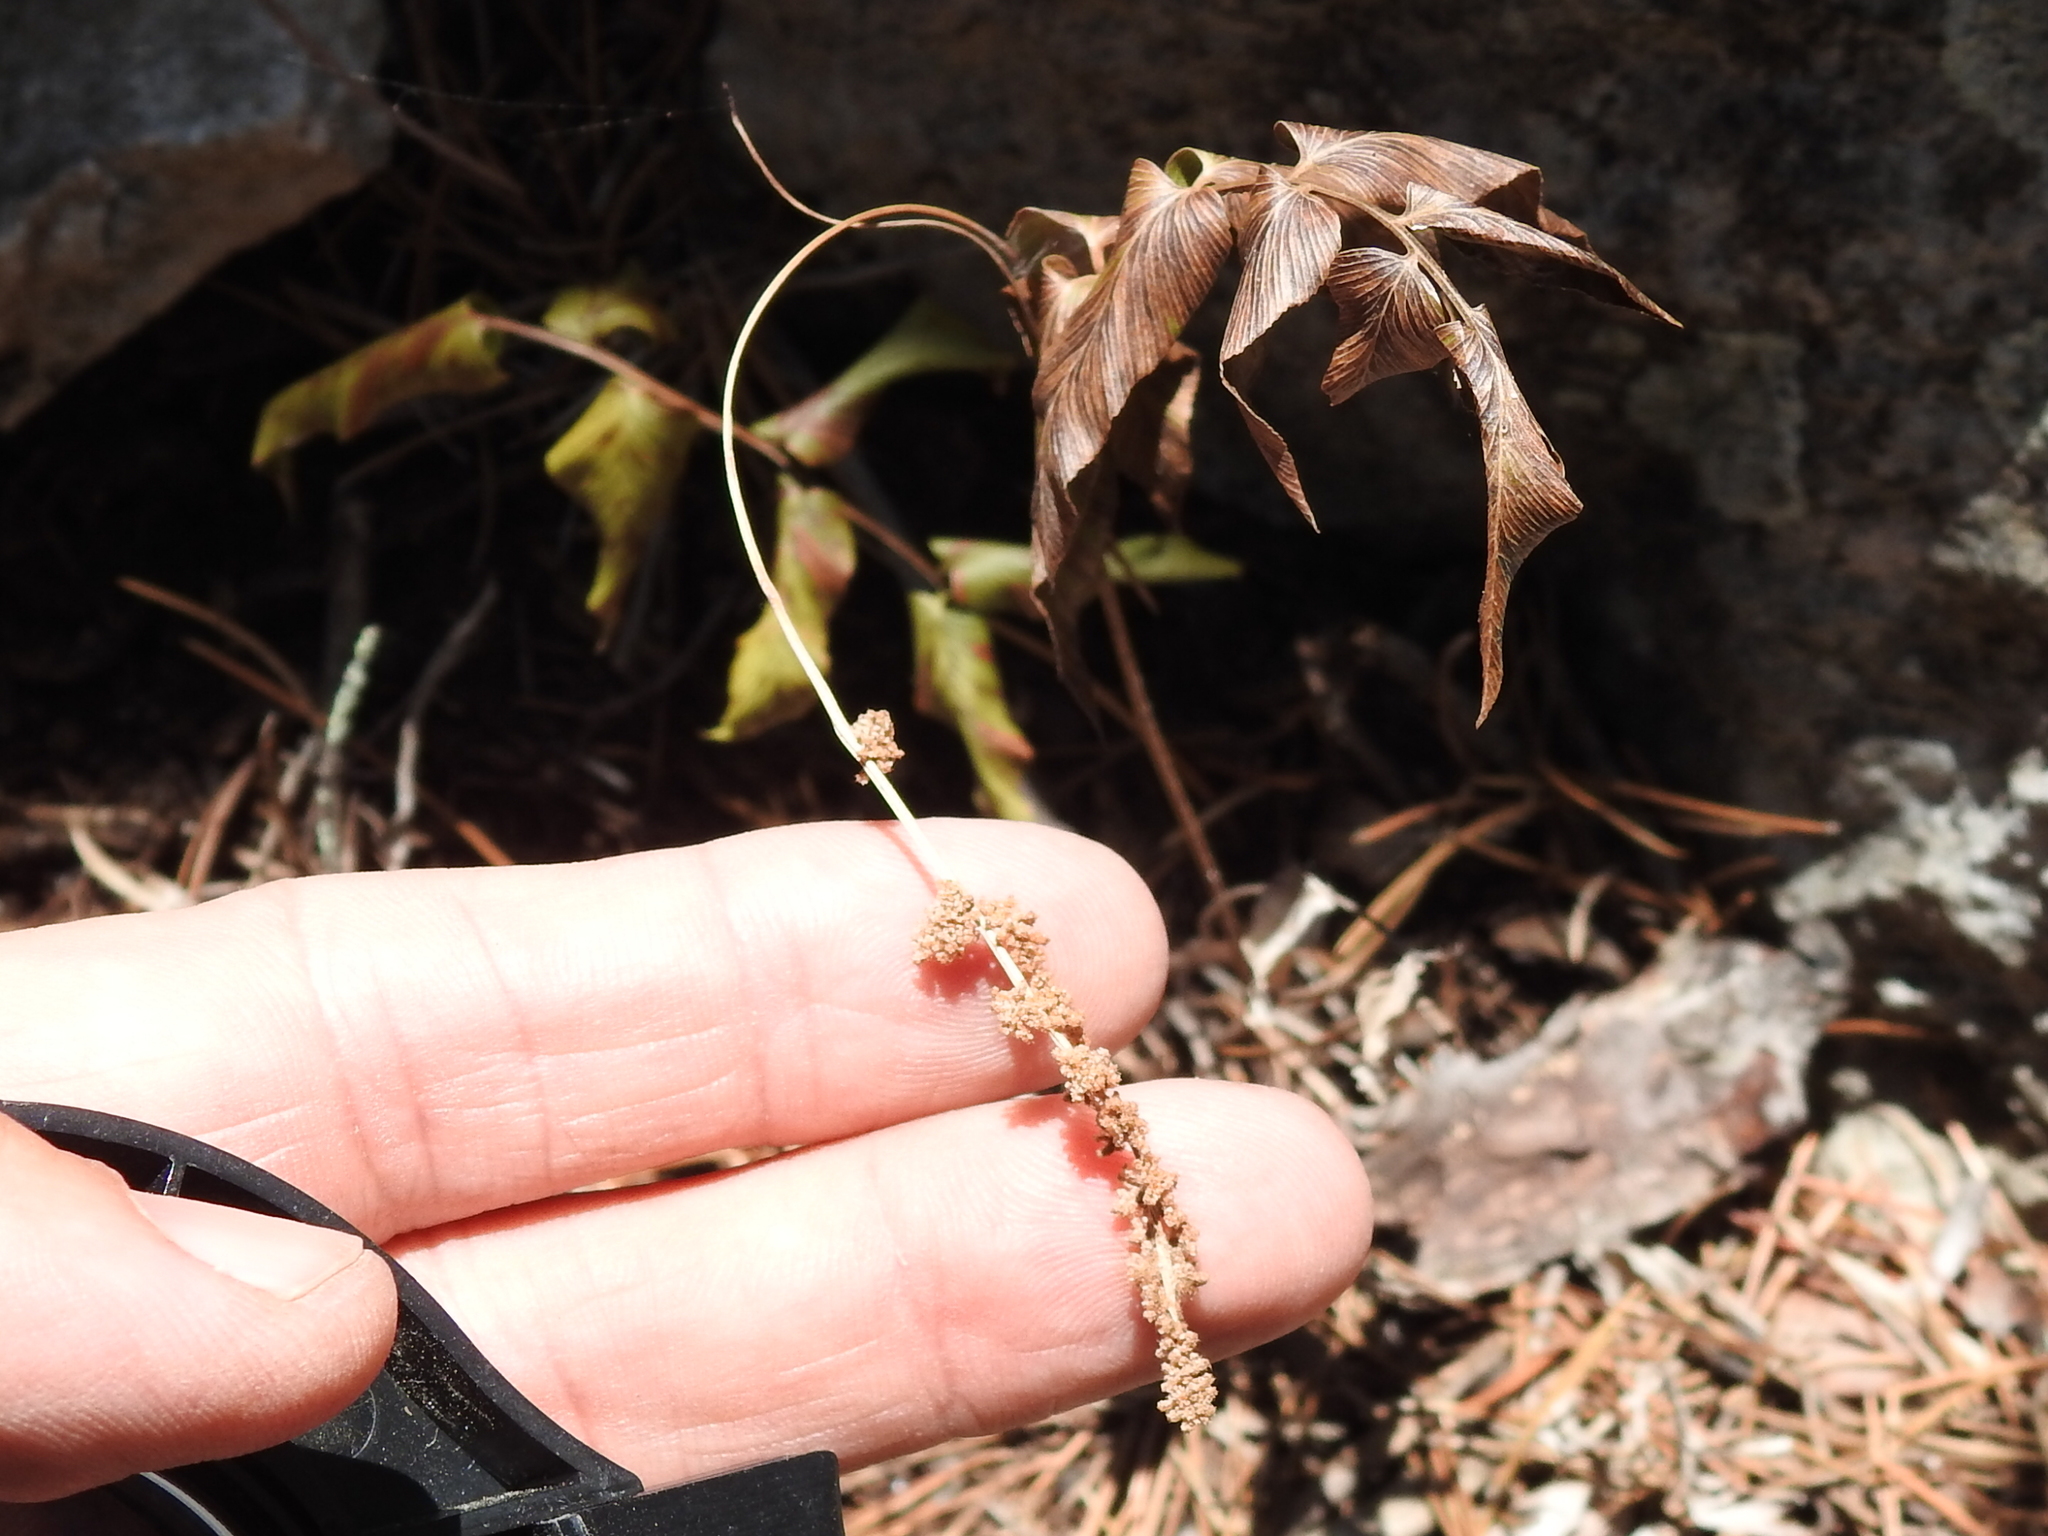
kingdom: Plantae
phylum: Tracheophyta
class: Polypodiopsida
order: Schizaeales
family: Anemiaceae
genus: Anemia
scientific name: Anemia mexicana
